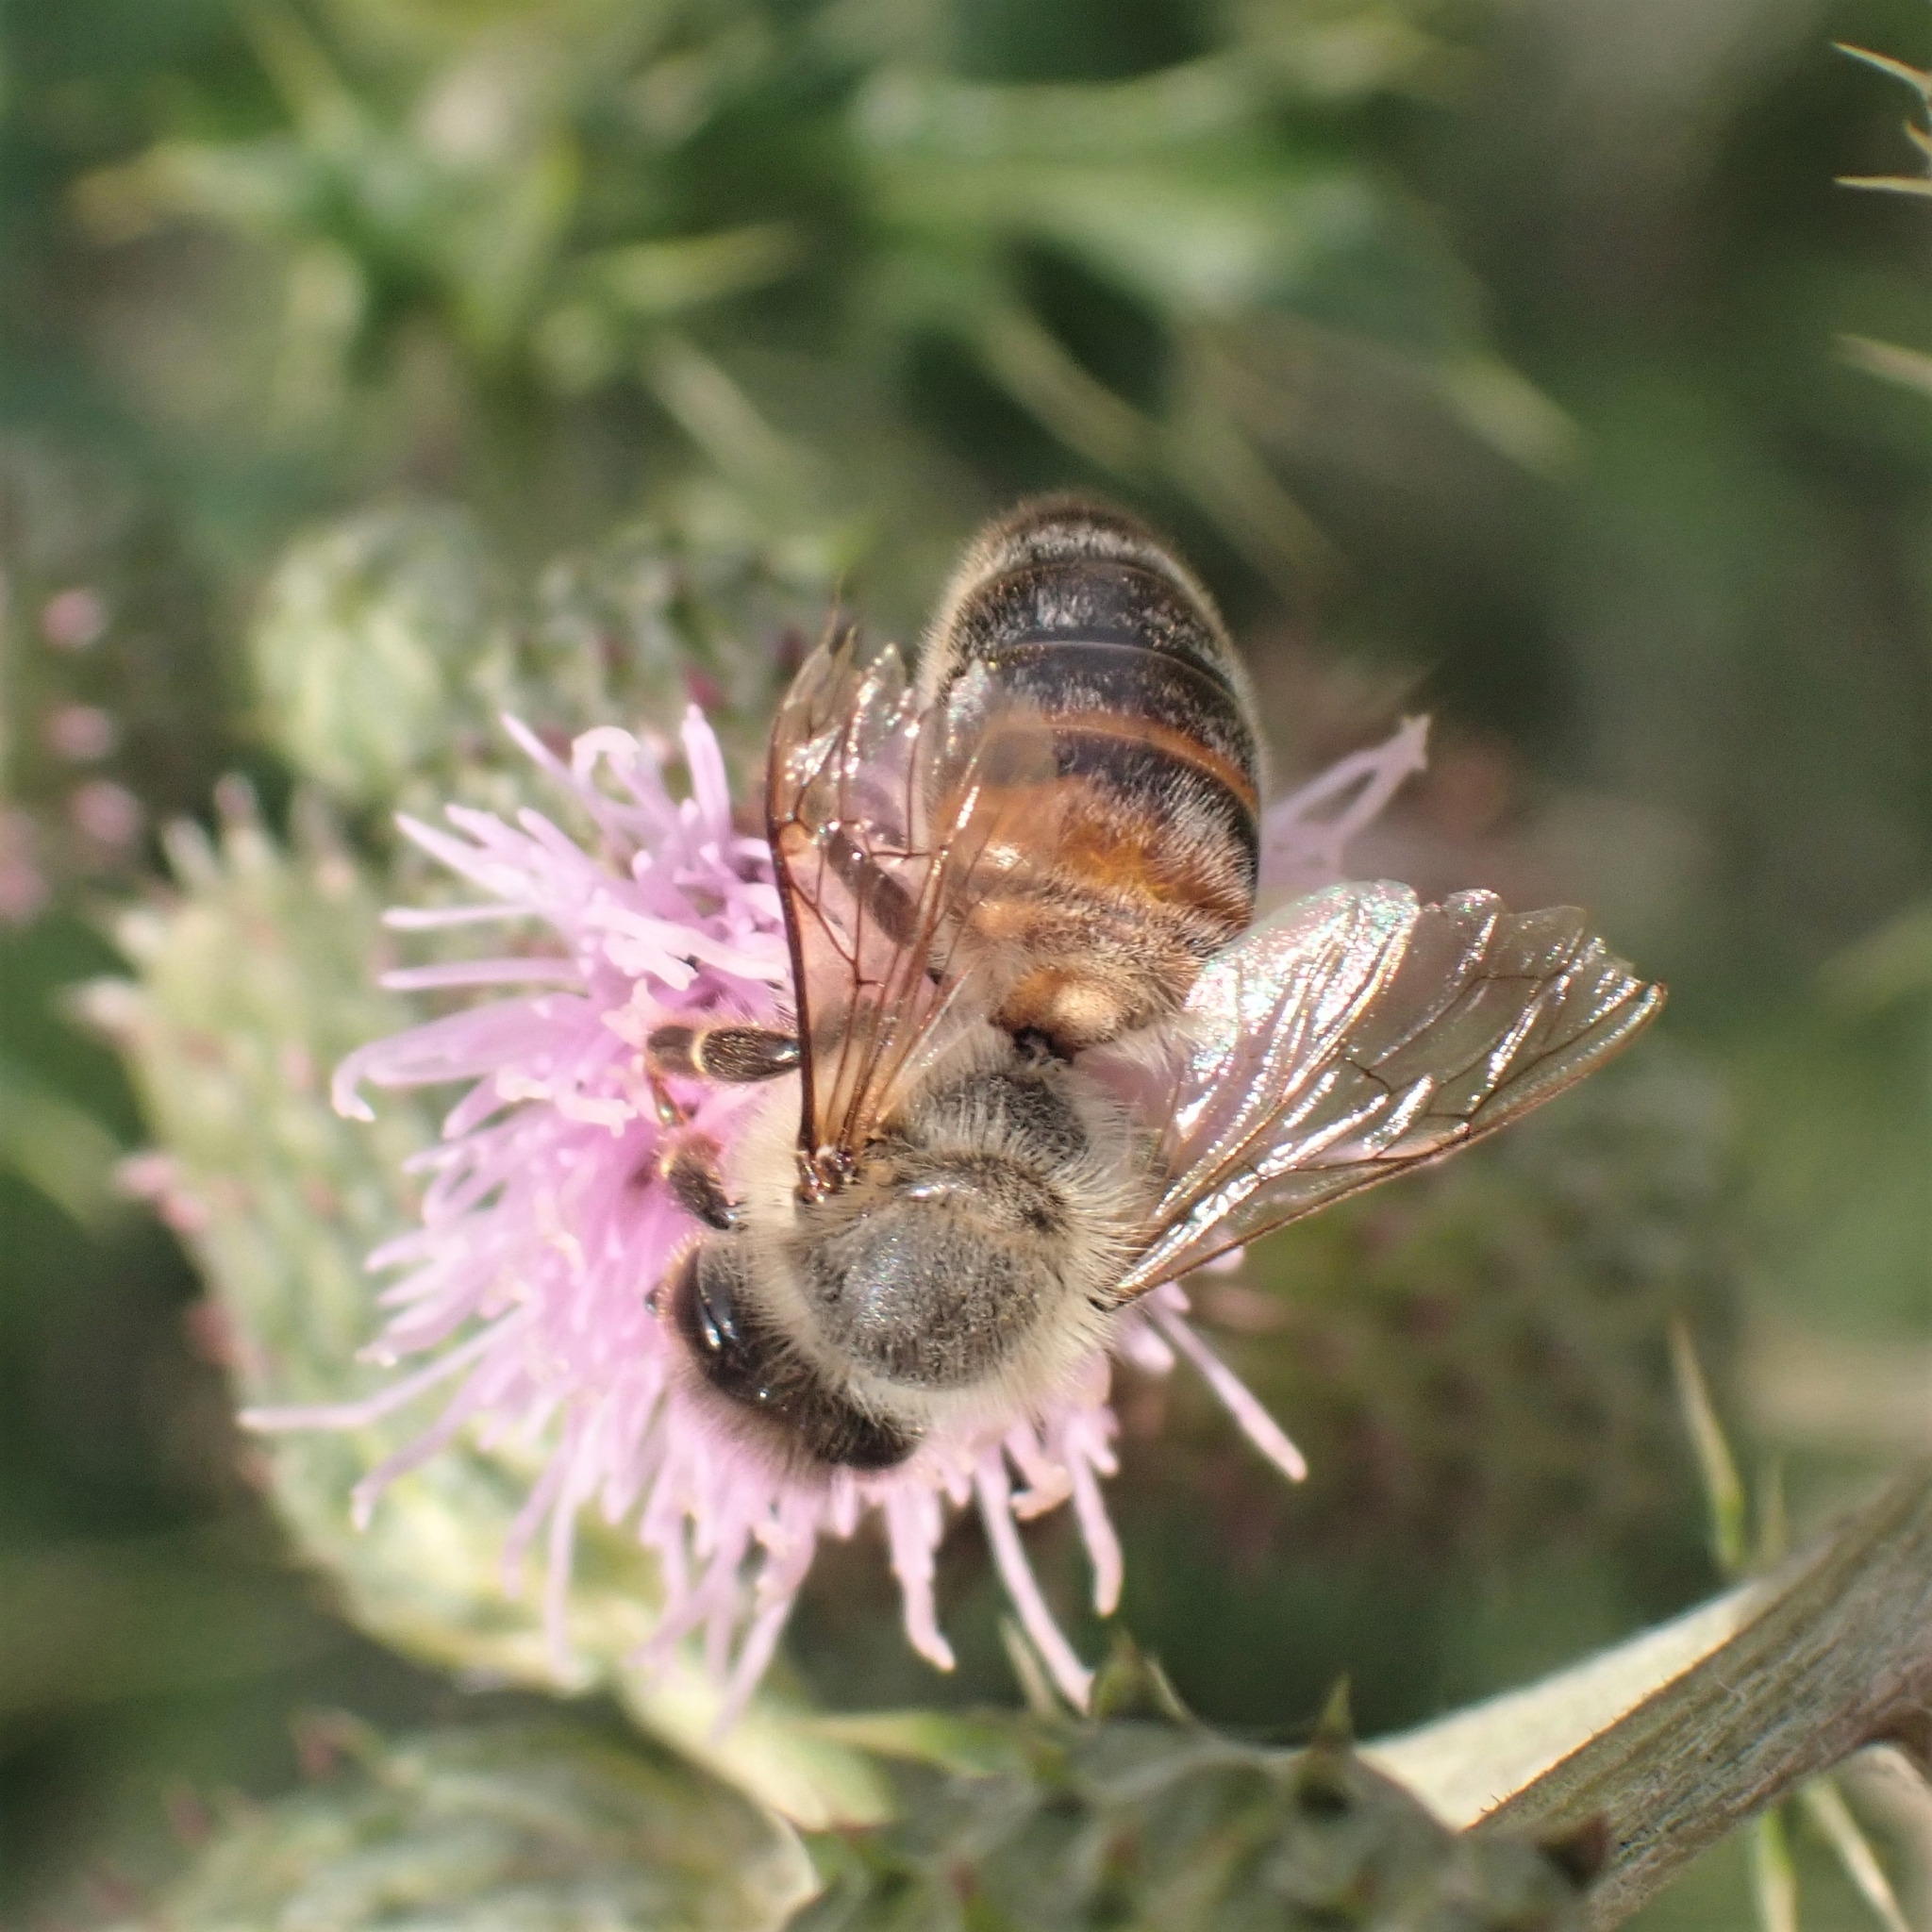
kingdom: Animalia
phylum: Arthropoda
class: Insecta
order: Hymenoptera
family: Apidae
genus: Apis
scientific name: Apis mellifera
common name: Honey bee
